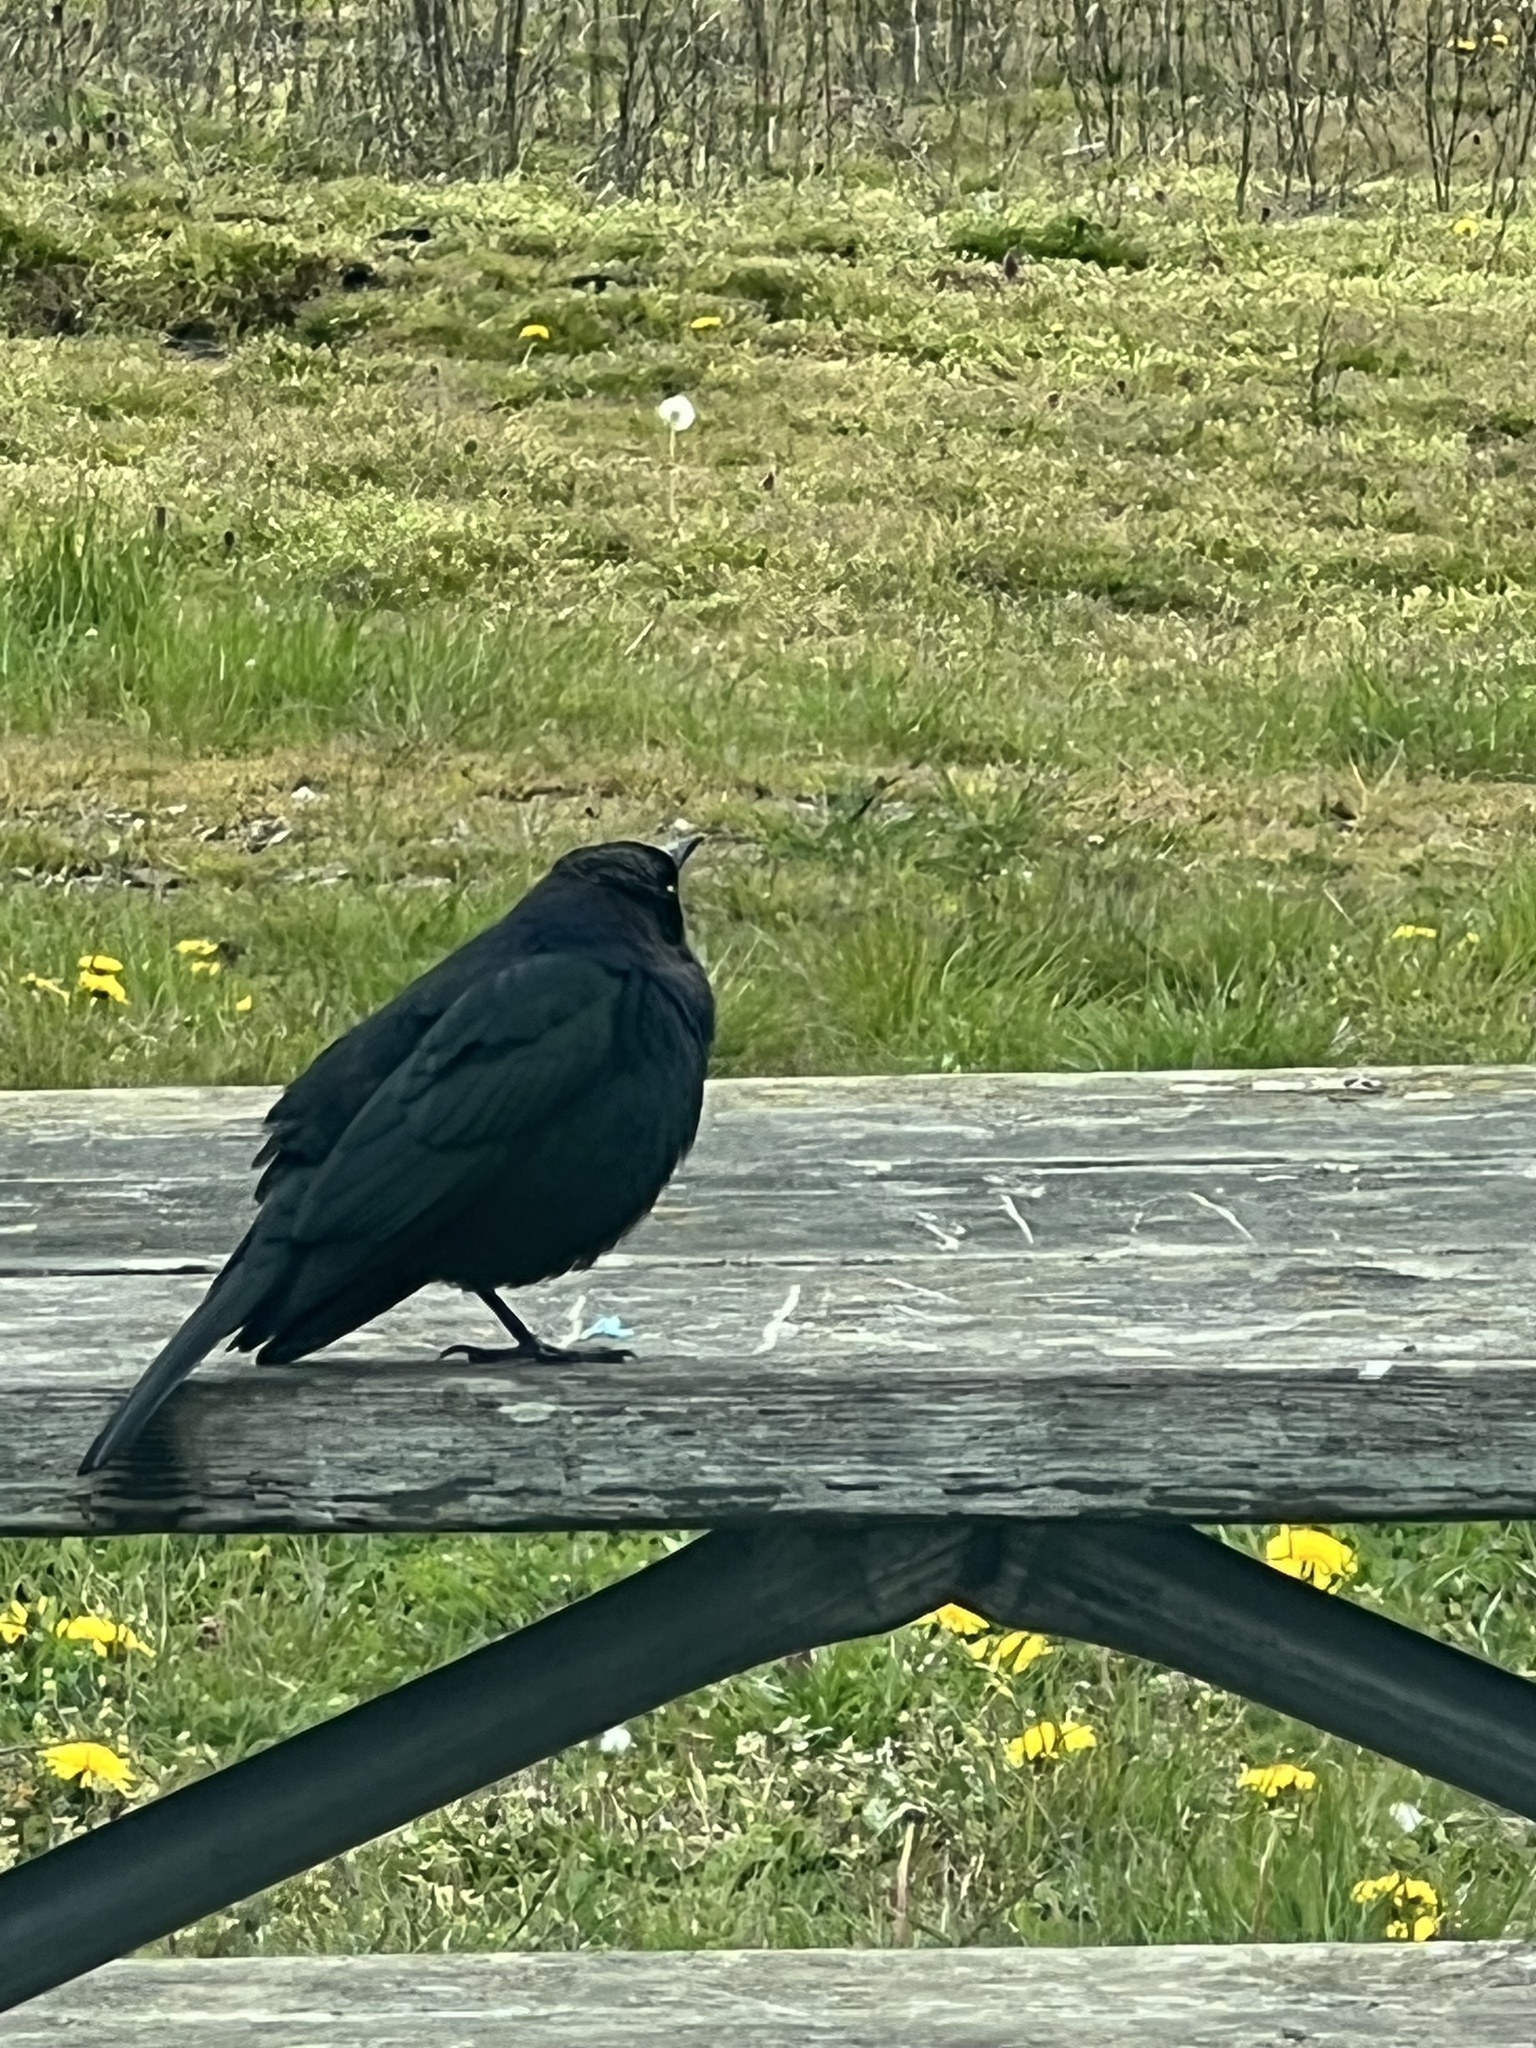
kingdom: Animalia
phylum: Chordata
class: Aves
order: Passeriformes
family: Icteridae
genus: Euphagus
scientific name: Euphagus cyanocephalus
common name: Brewer's blackbird
